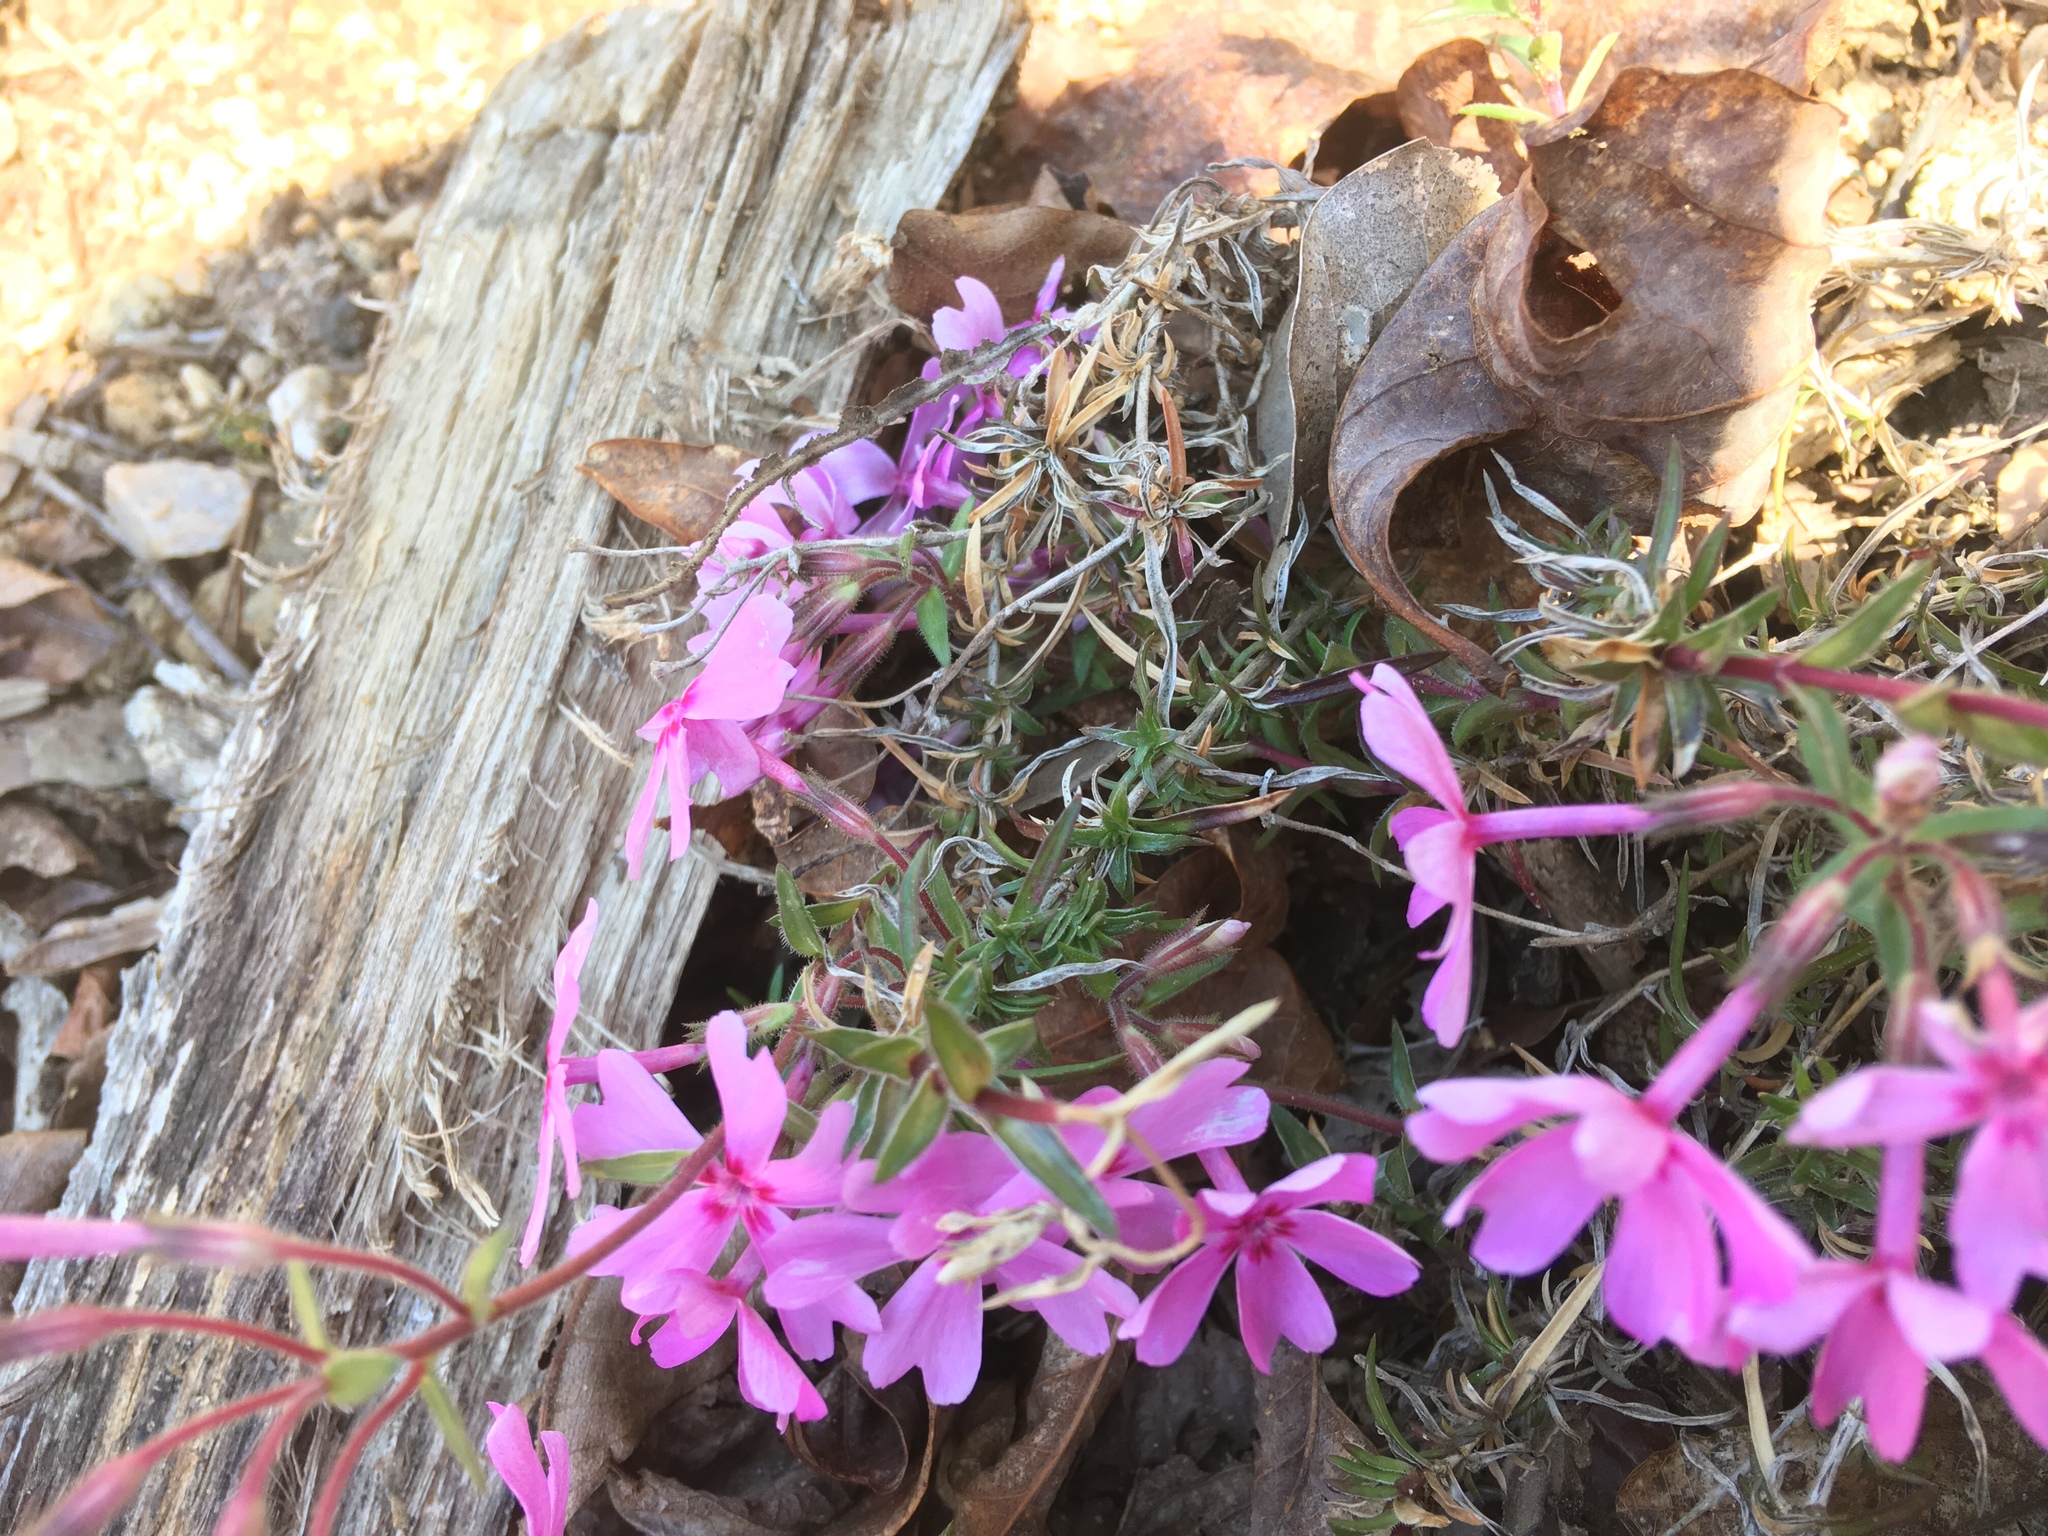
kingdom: Plantae
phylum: Tracheophyta
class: Magnoliopsida
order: Ericales
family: Polemoniaceae
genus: Phlox
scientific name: Phlox nivalis
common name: Trailing phlox
